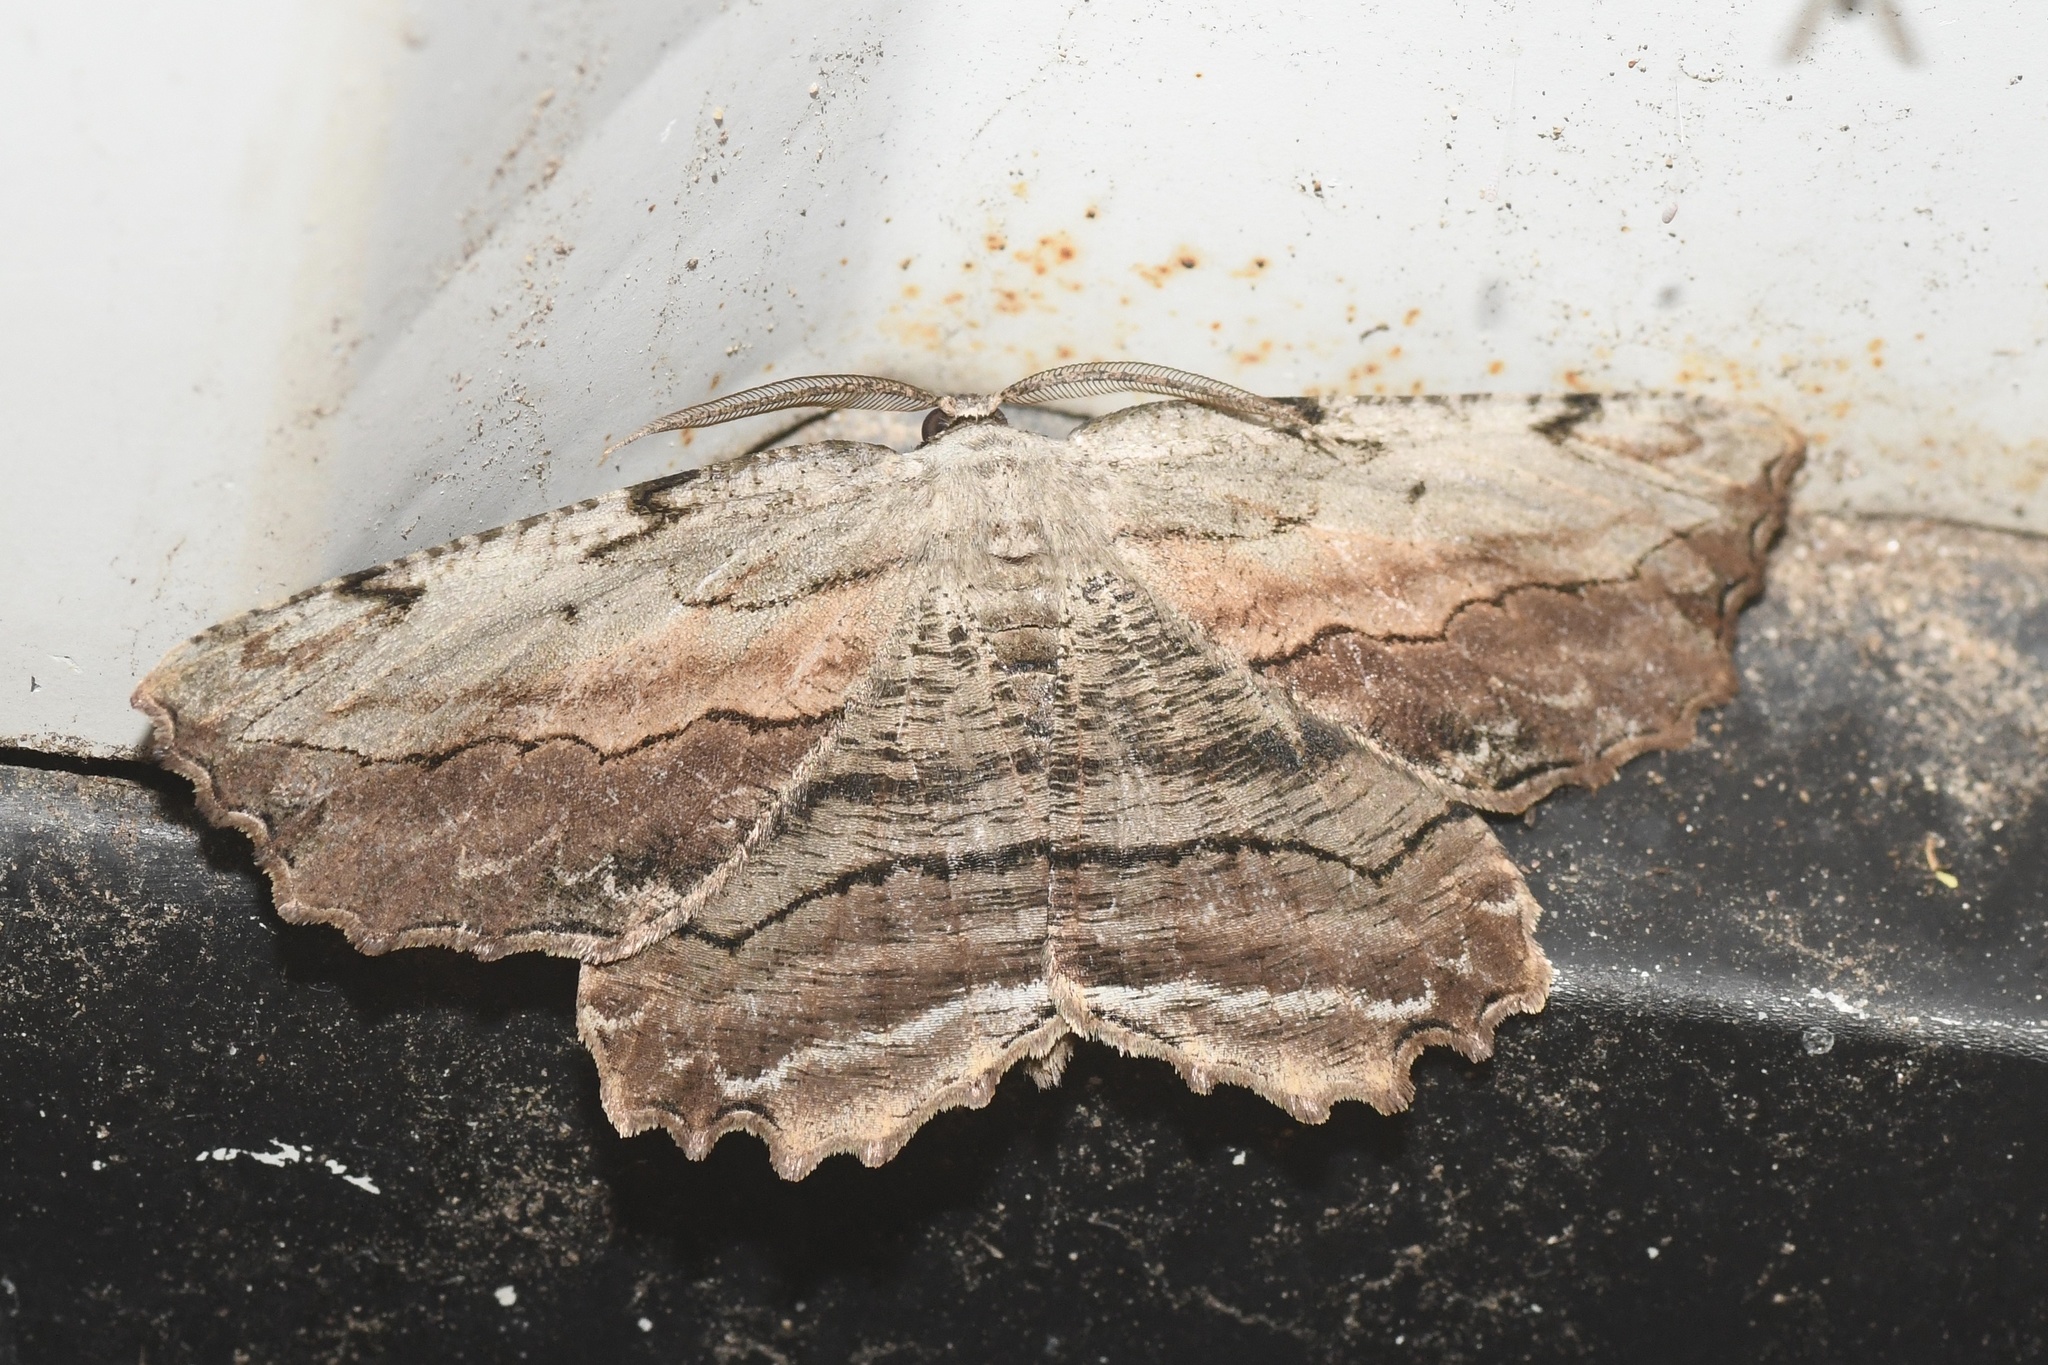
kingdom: Animalia
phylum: Arthropoda
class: Insecta
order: Lepidoptera
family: Geometridae
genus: Lytrosis
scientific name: Lytrosis unitaria
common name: Common lytrosis
